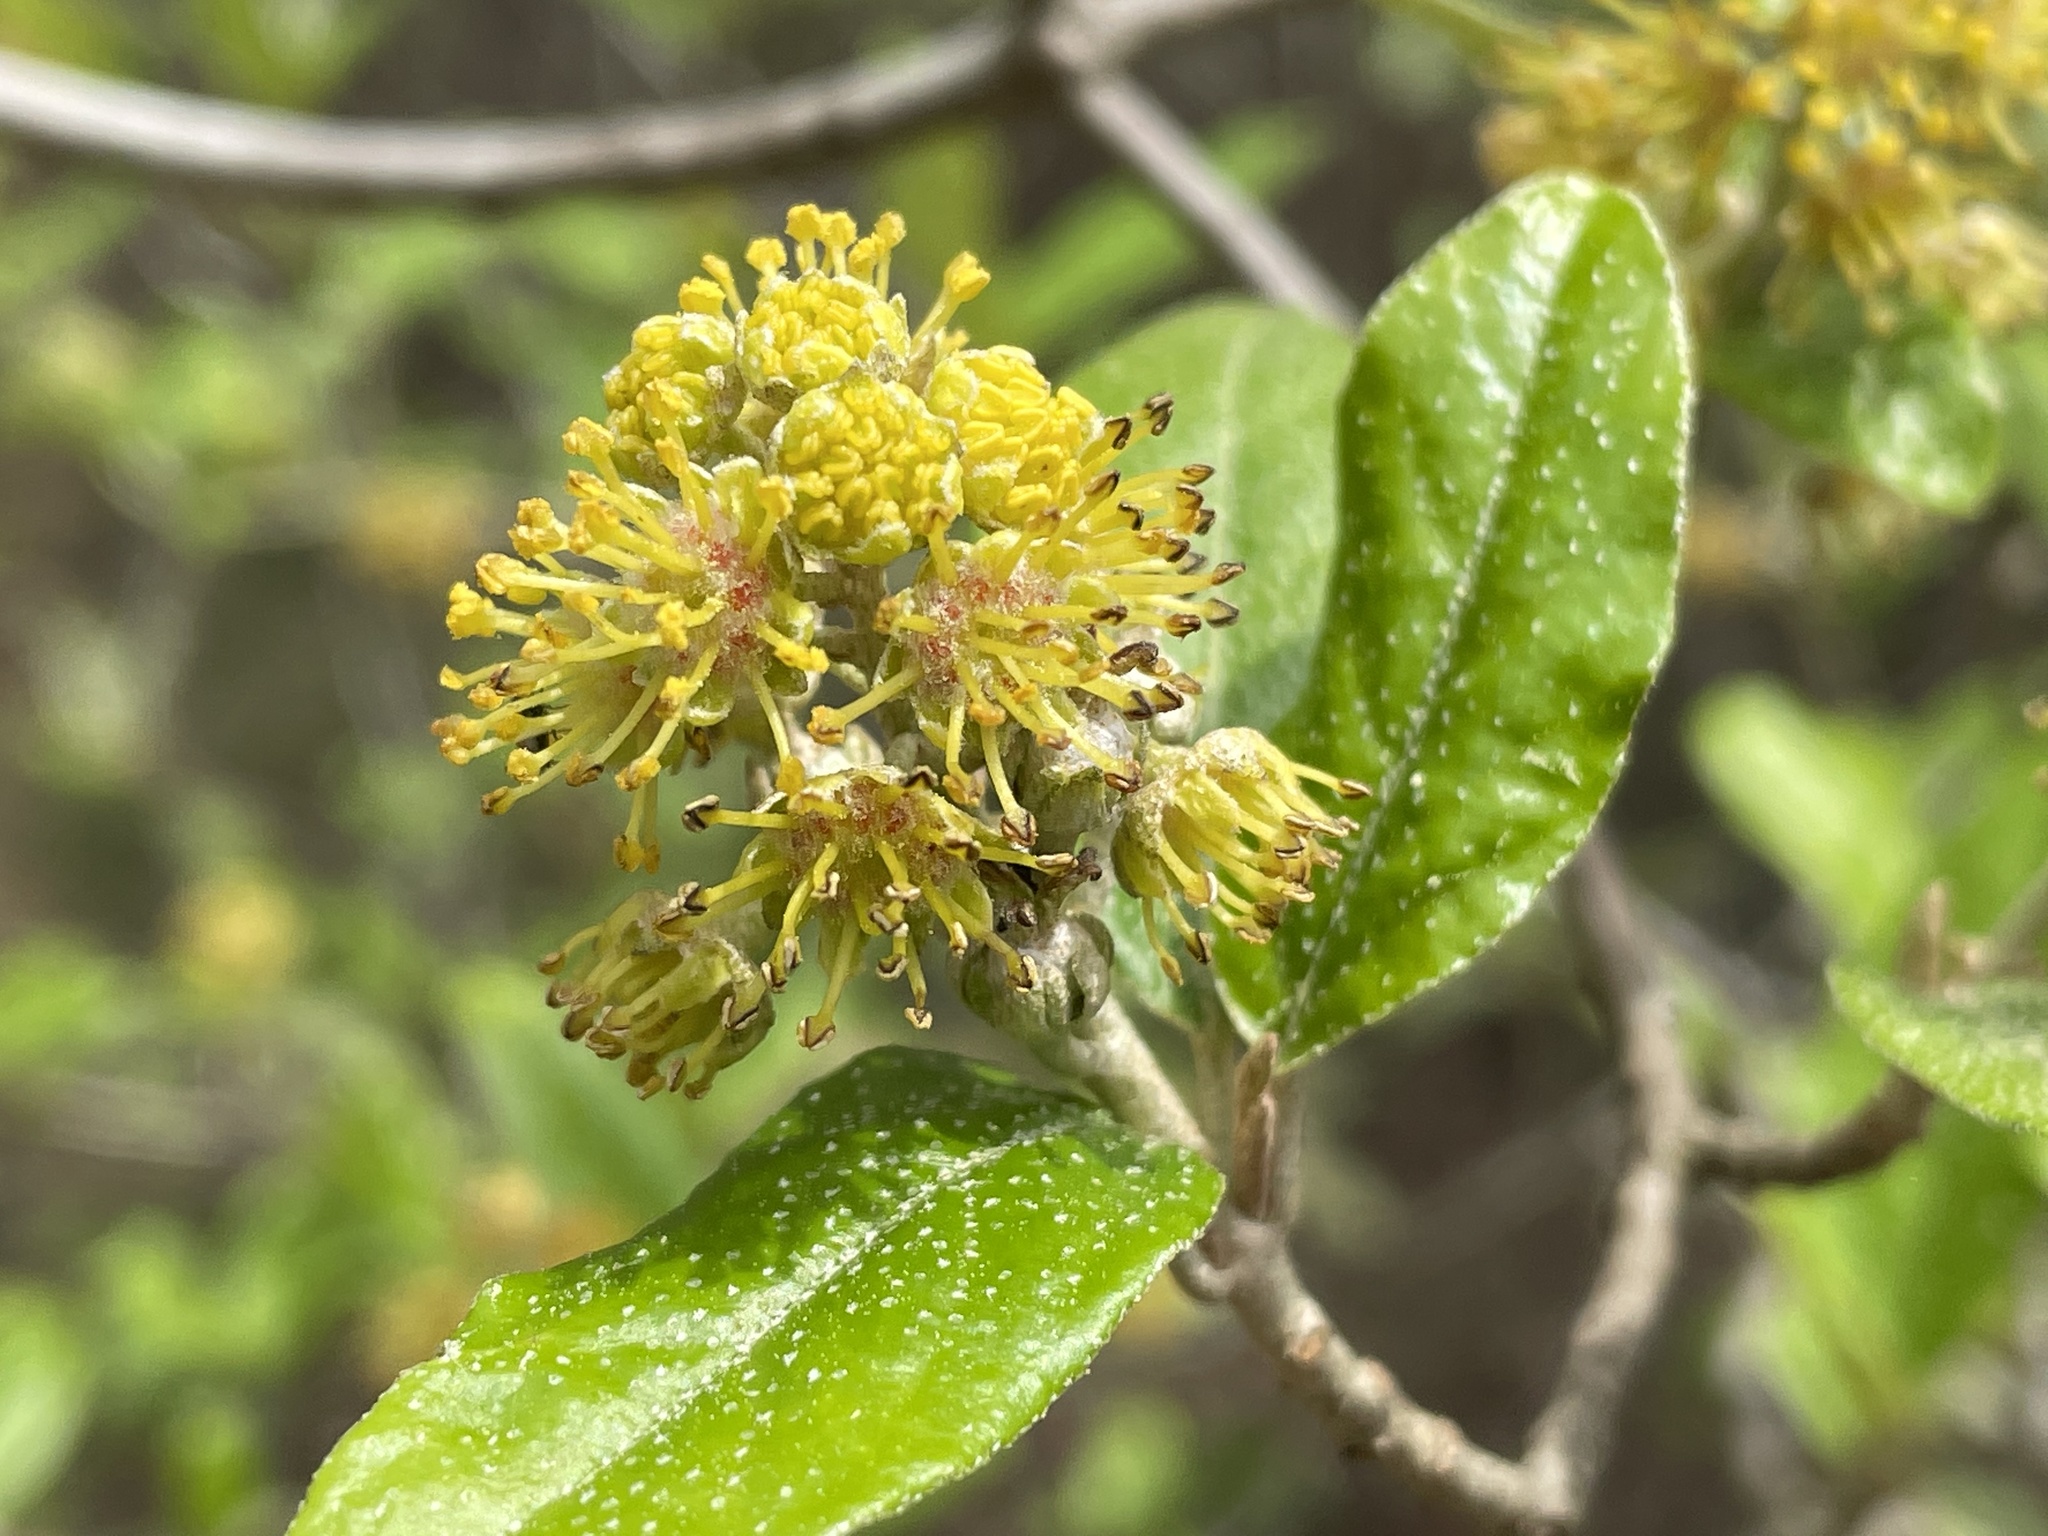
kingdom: Plantae
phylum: Tracheophyta
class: Magnoliopsida
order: Malpighiales
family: Euphorbiaceae
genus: Croton
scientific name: Croton alabamensis
